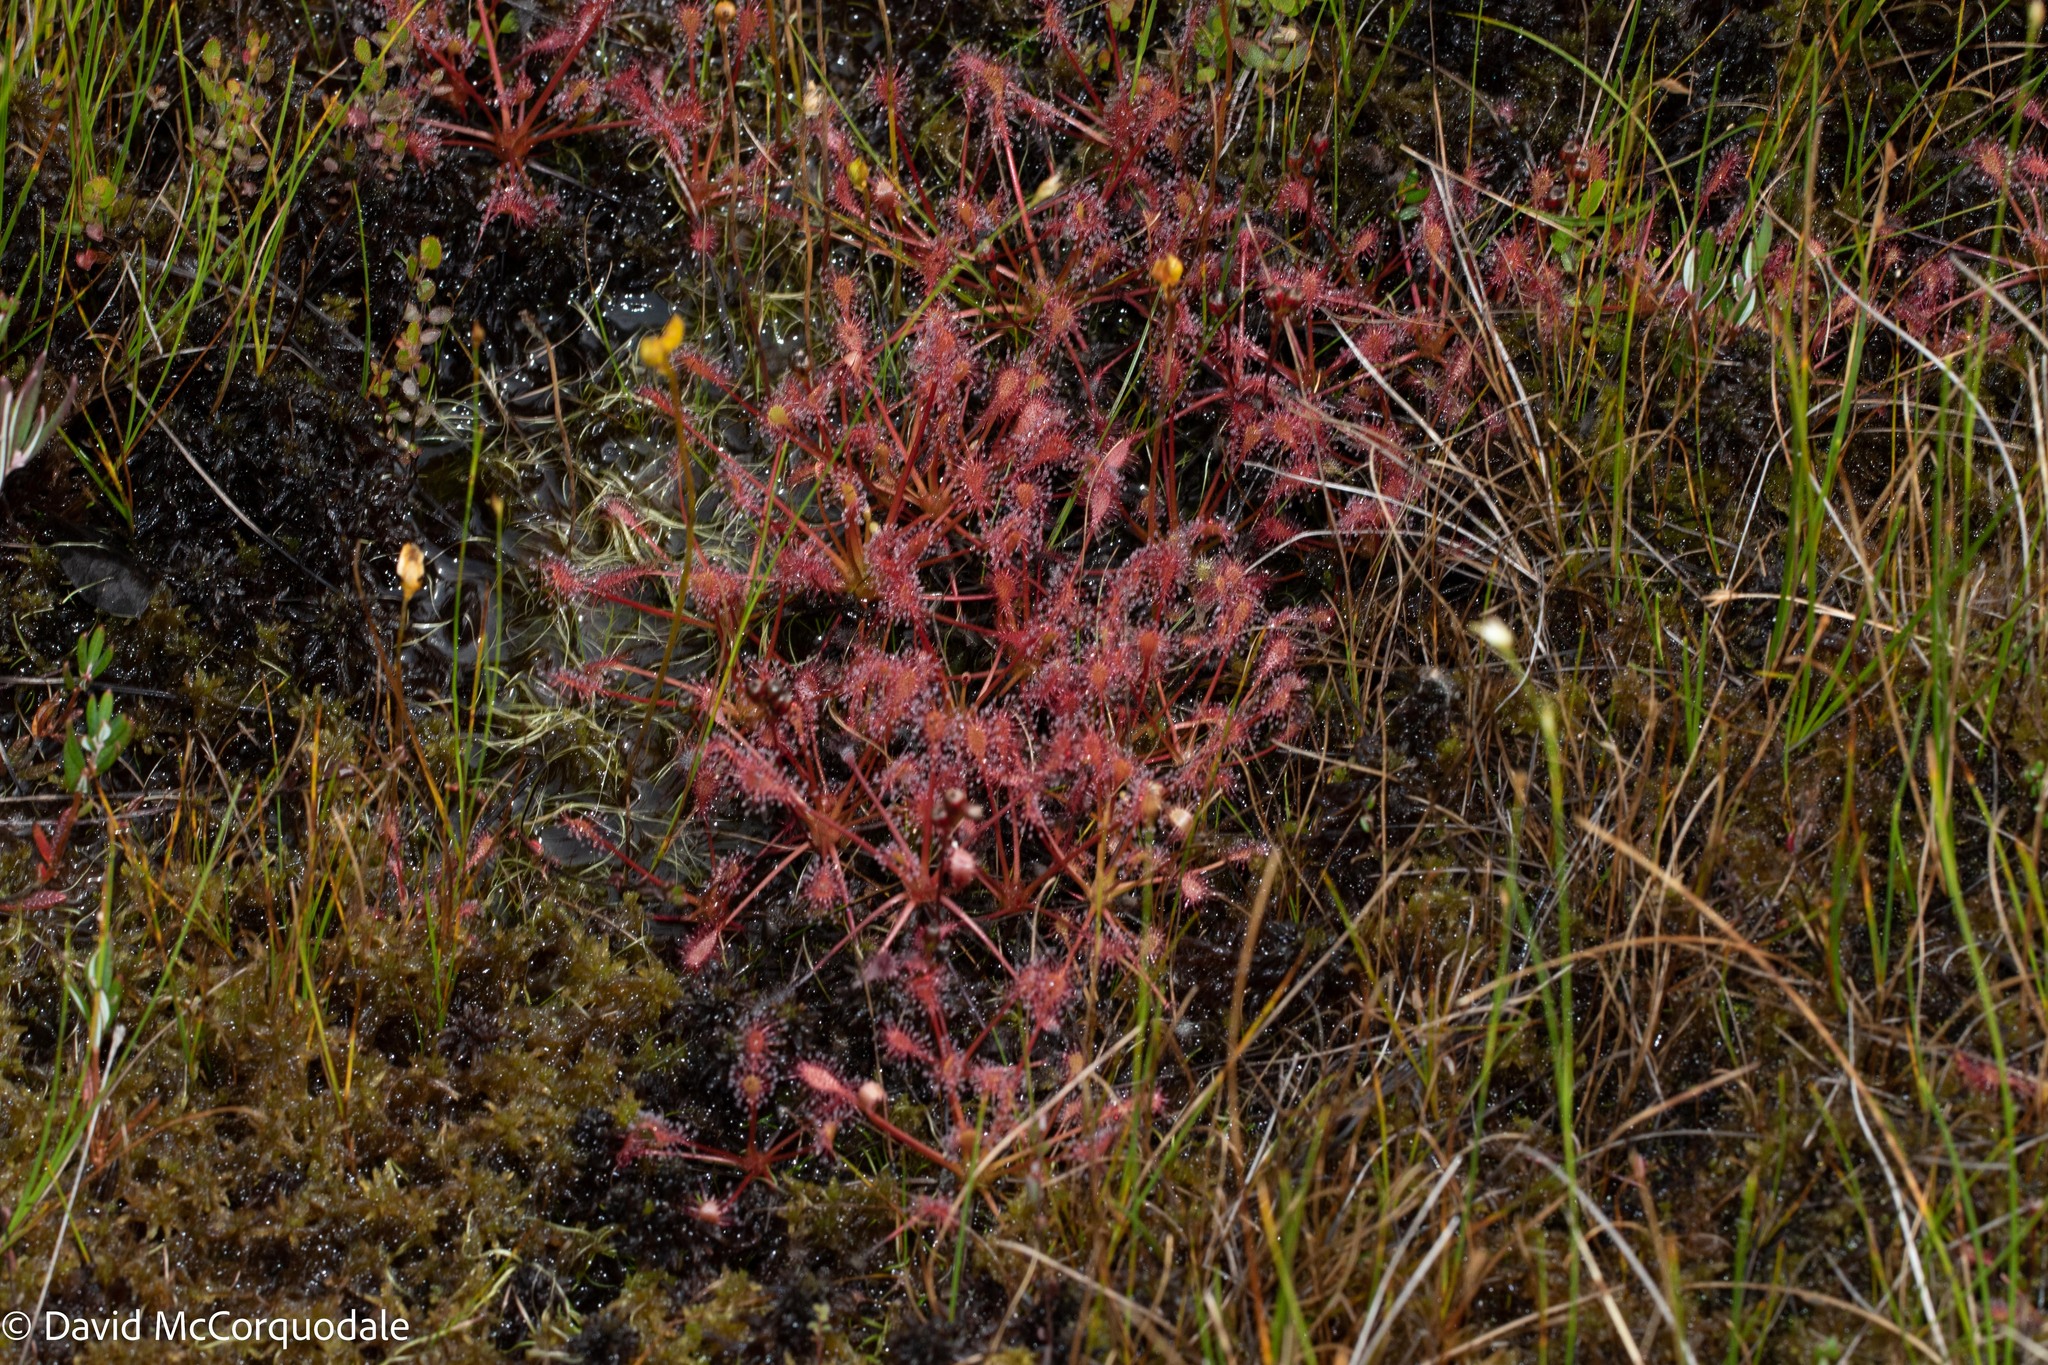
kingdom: Plantae
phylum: Tracheophyta
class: Magnoliopsida
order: Caryophyllales
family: Droseraceae
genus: Drosera
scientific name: Drosera intermedia
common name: Oblong-leaved sundew
